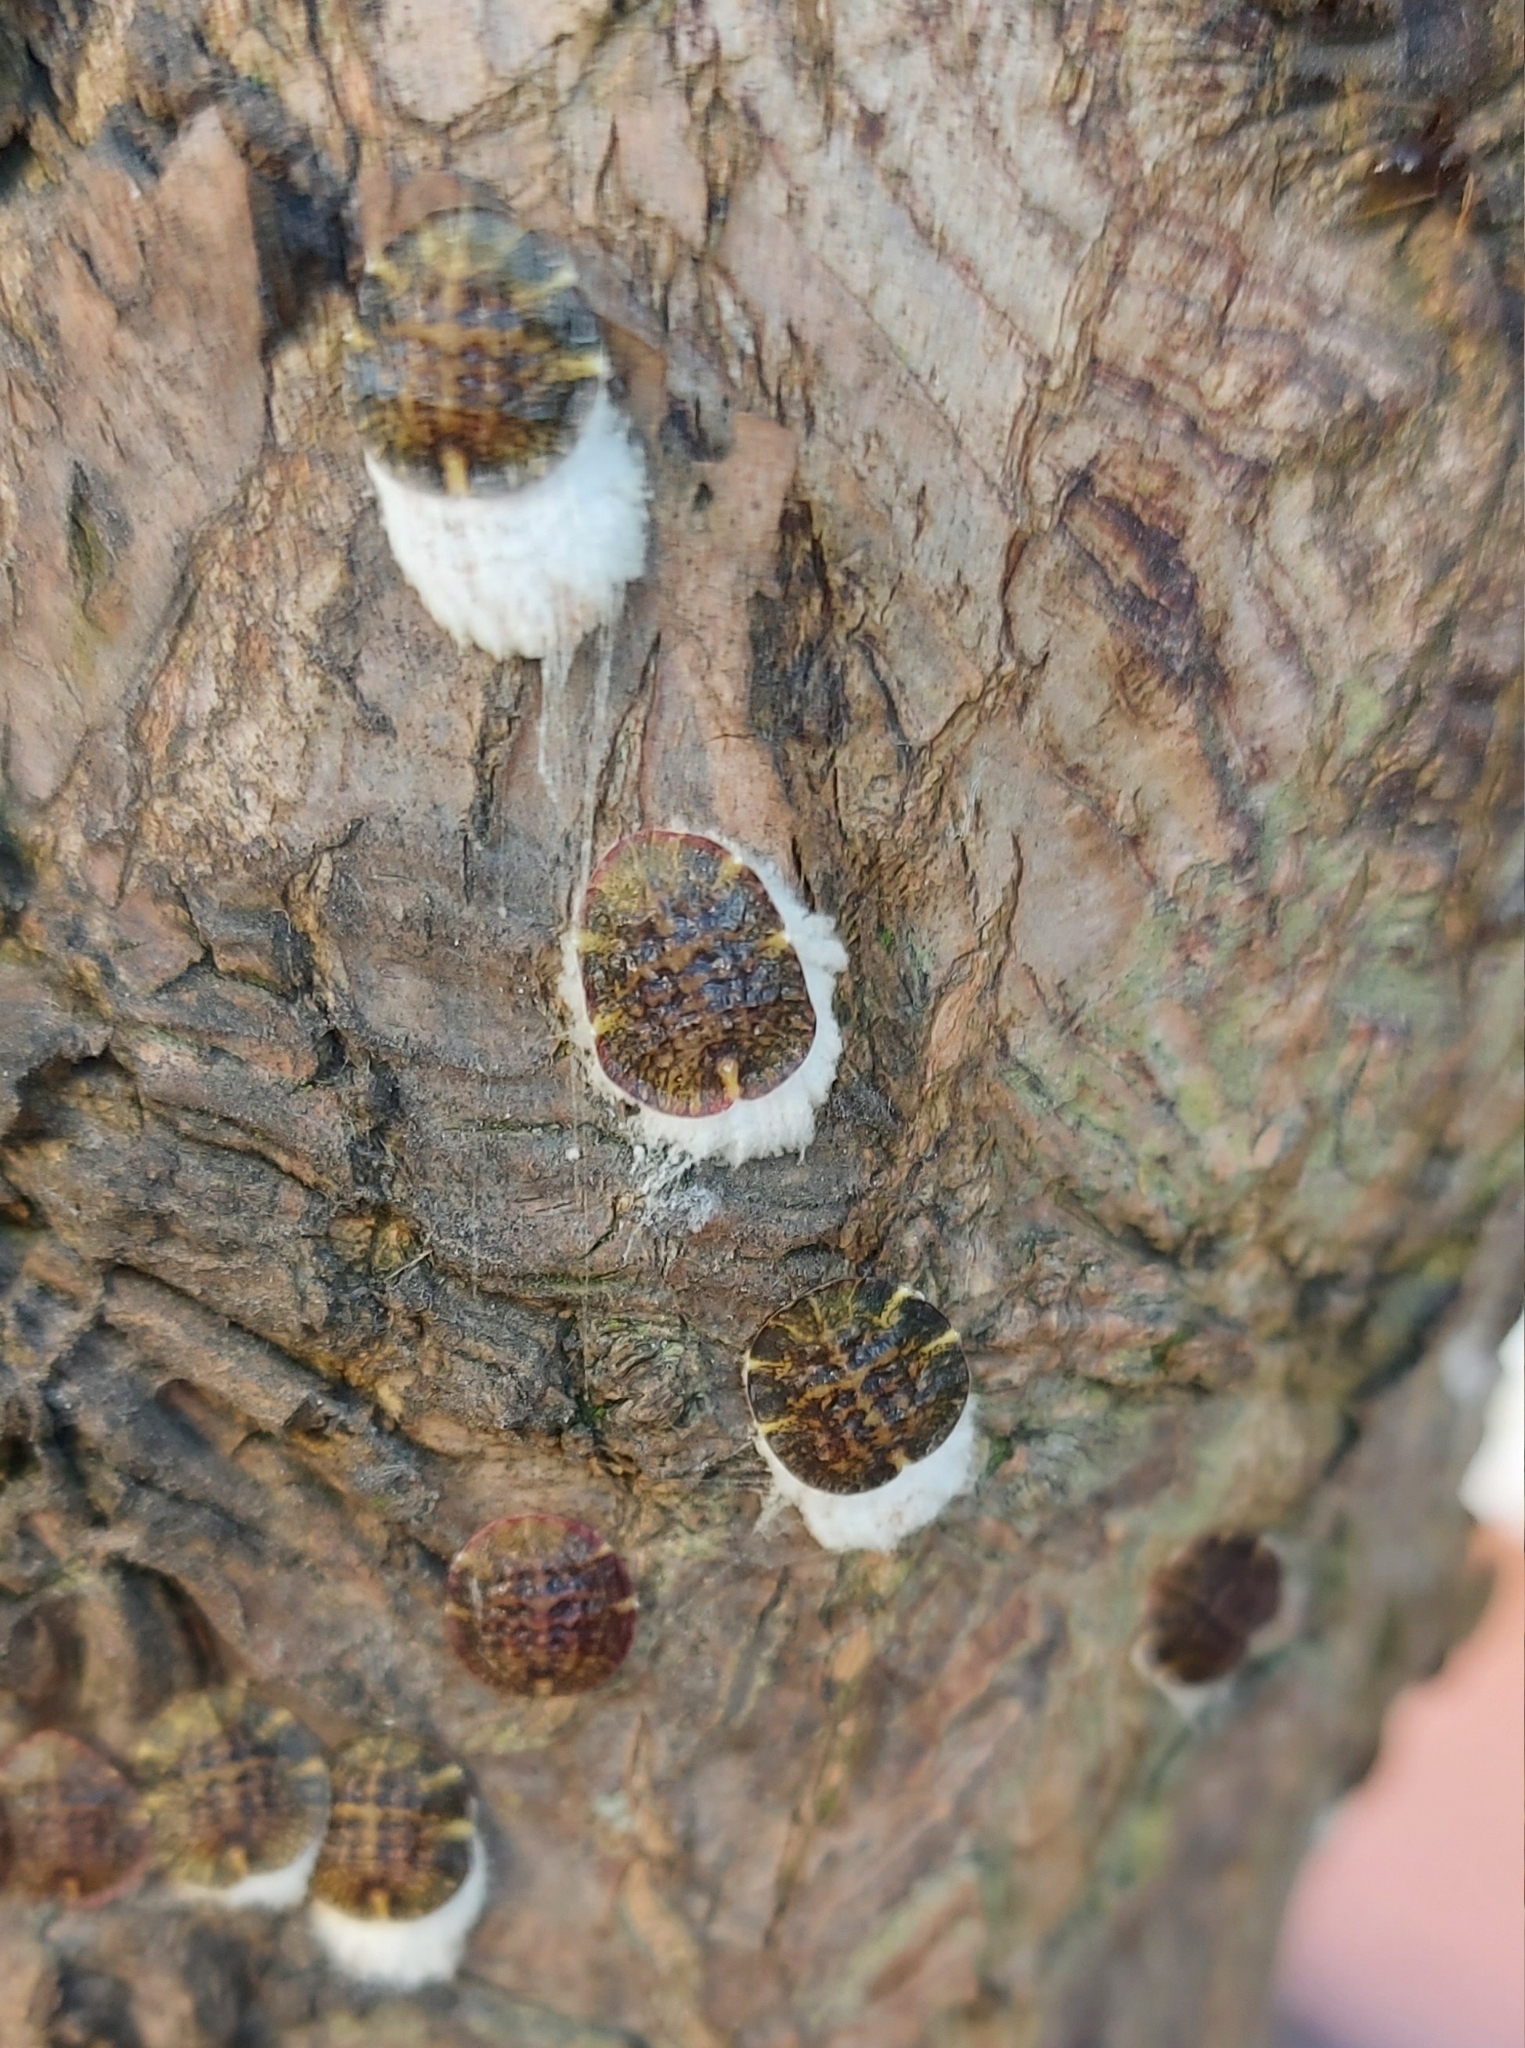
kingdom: Animalia
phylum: Arthropoda
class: Insecta
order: Hemiptera
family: Coccidae
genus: Pulvinaria
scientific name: Pulvinaria regalis
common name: Horse chestnut scale
